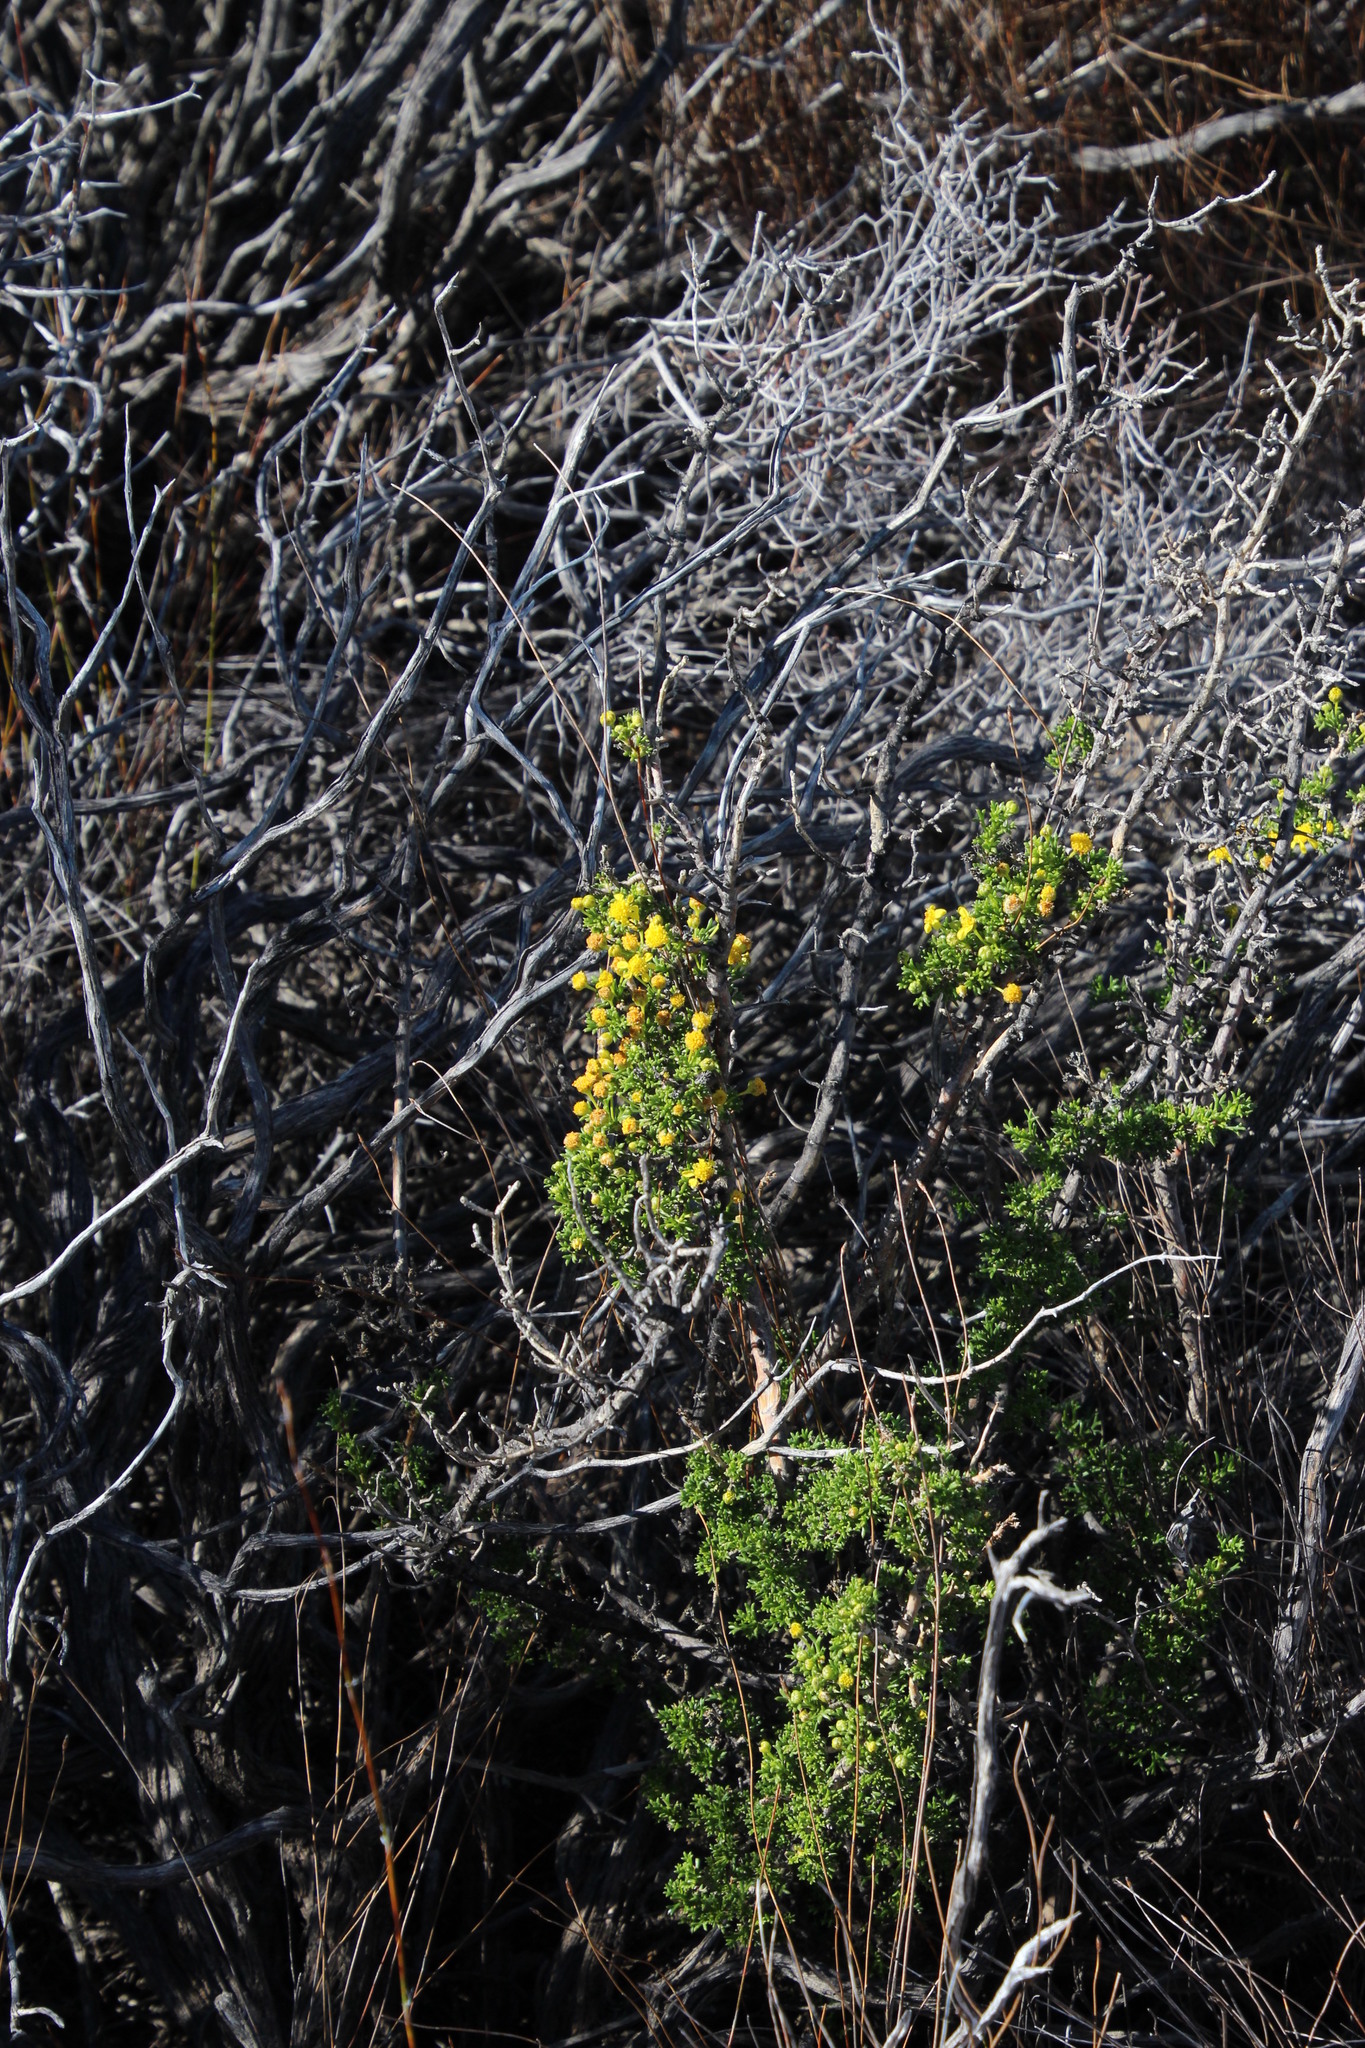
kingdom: Plantae
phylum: Tracheophyta
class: Magnoliopsida
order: Asterales
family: Asteraceae
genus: Euryops
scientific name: Euryops multifidus
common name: Hawk's eye
